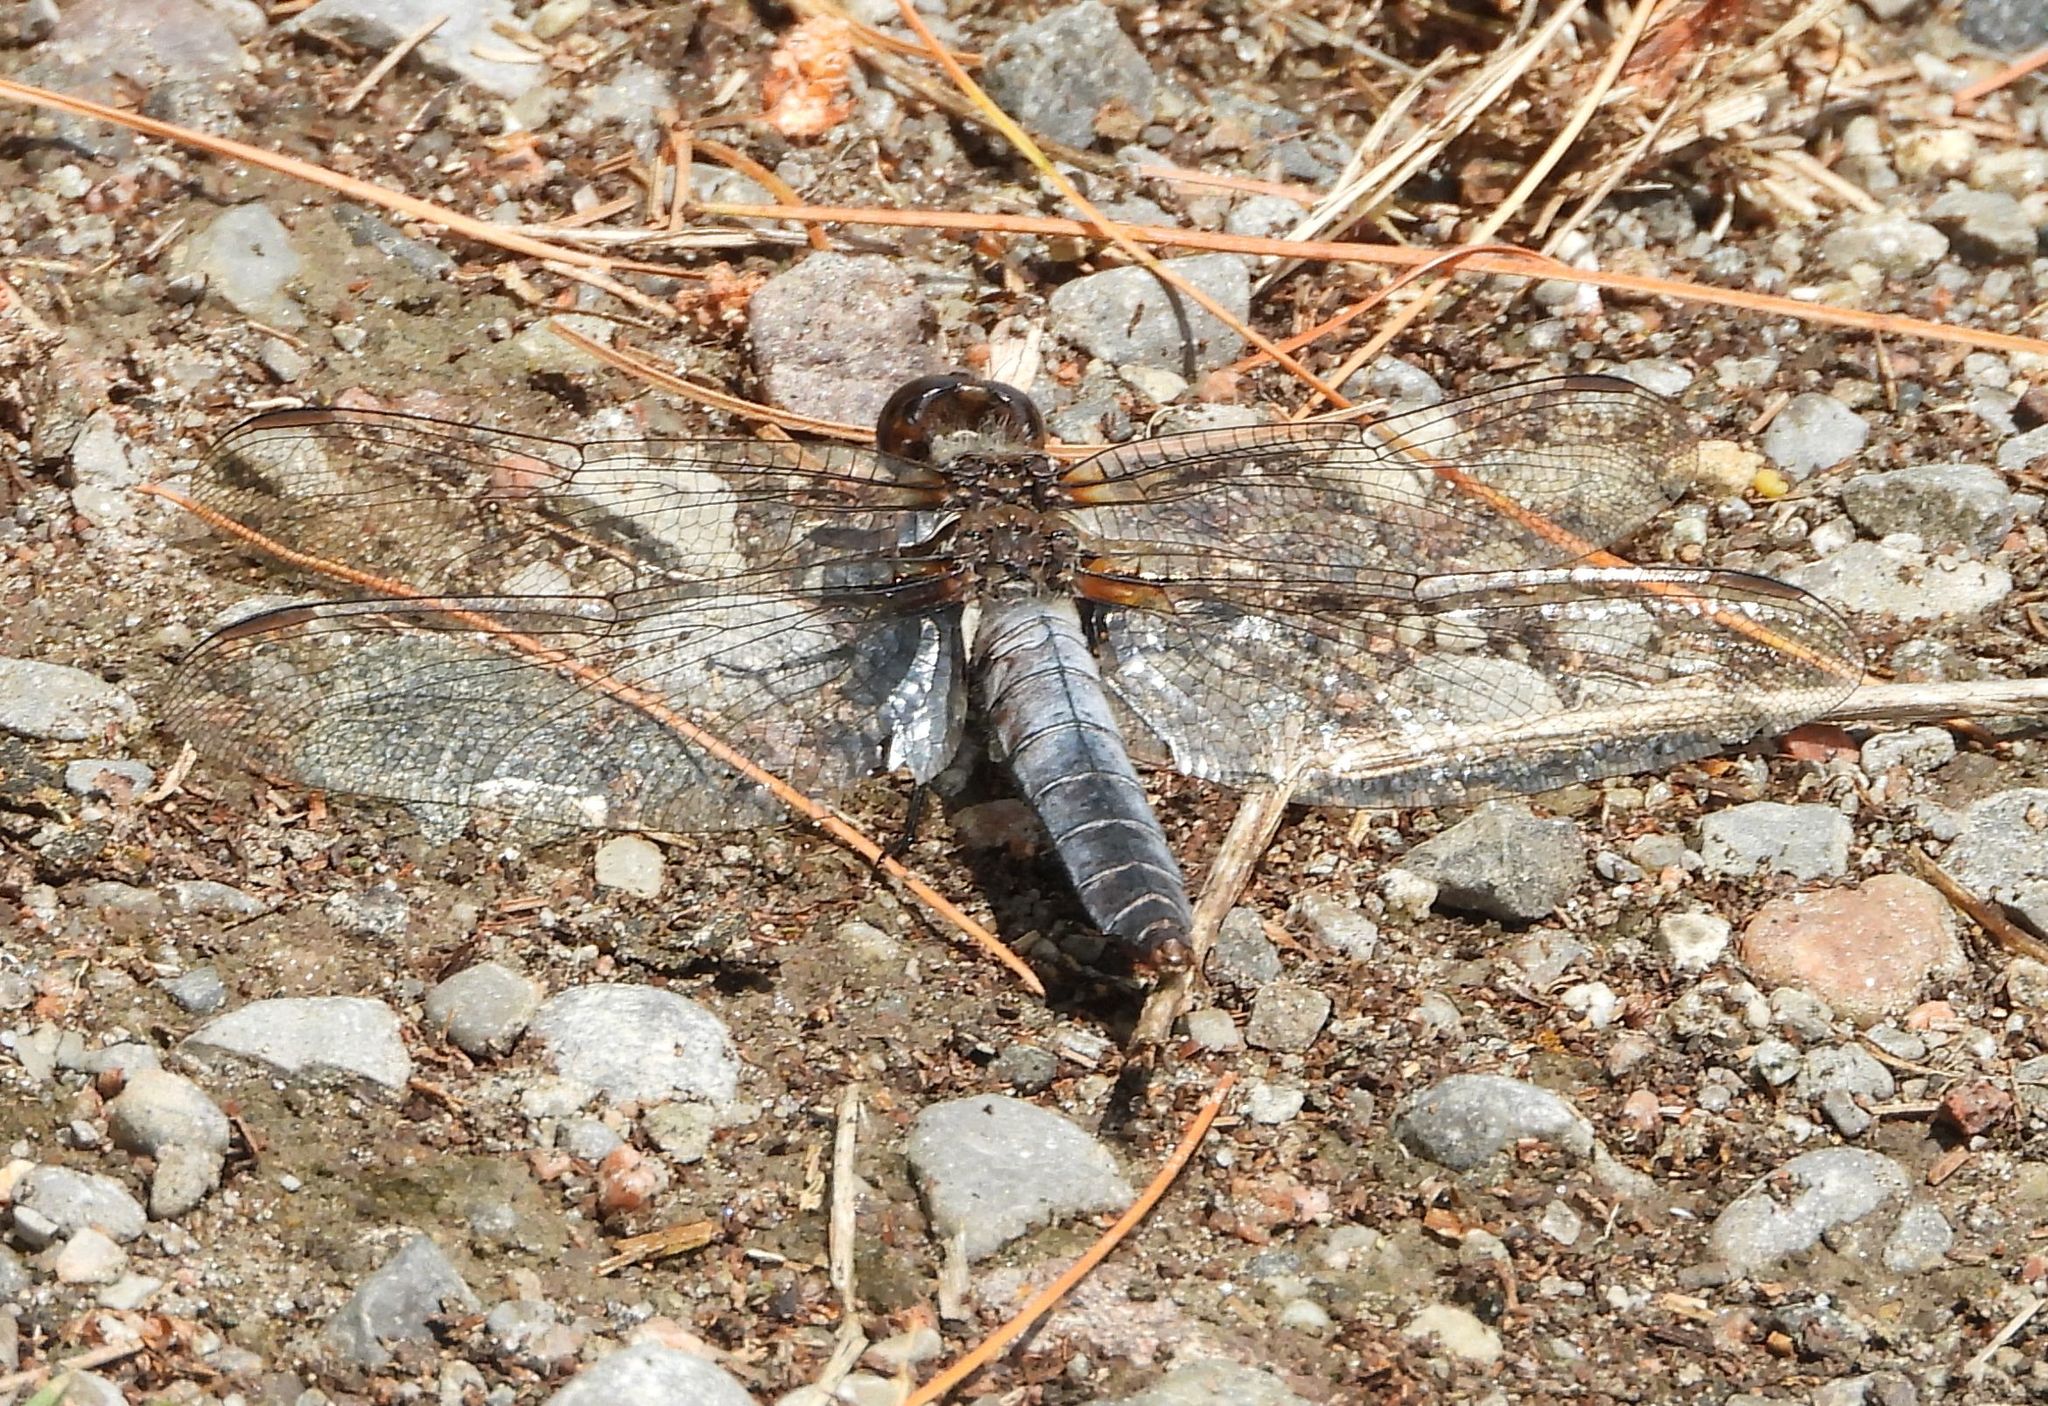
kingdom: Animalia
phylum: Arthropoda
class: Insecta
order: Odonata
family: Libellulidae
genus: Ladona
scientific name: Ladona julia
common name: Chalk-fronted corporal
